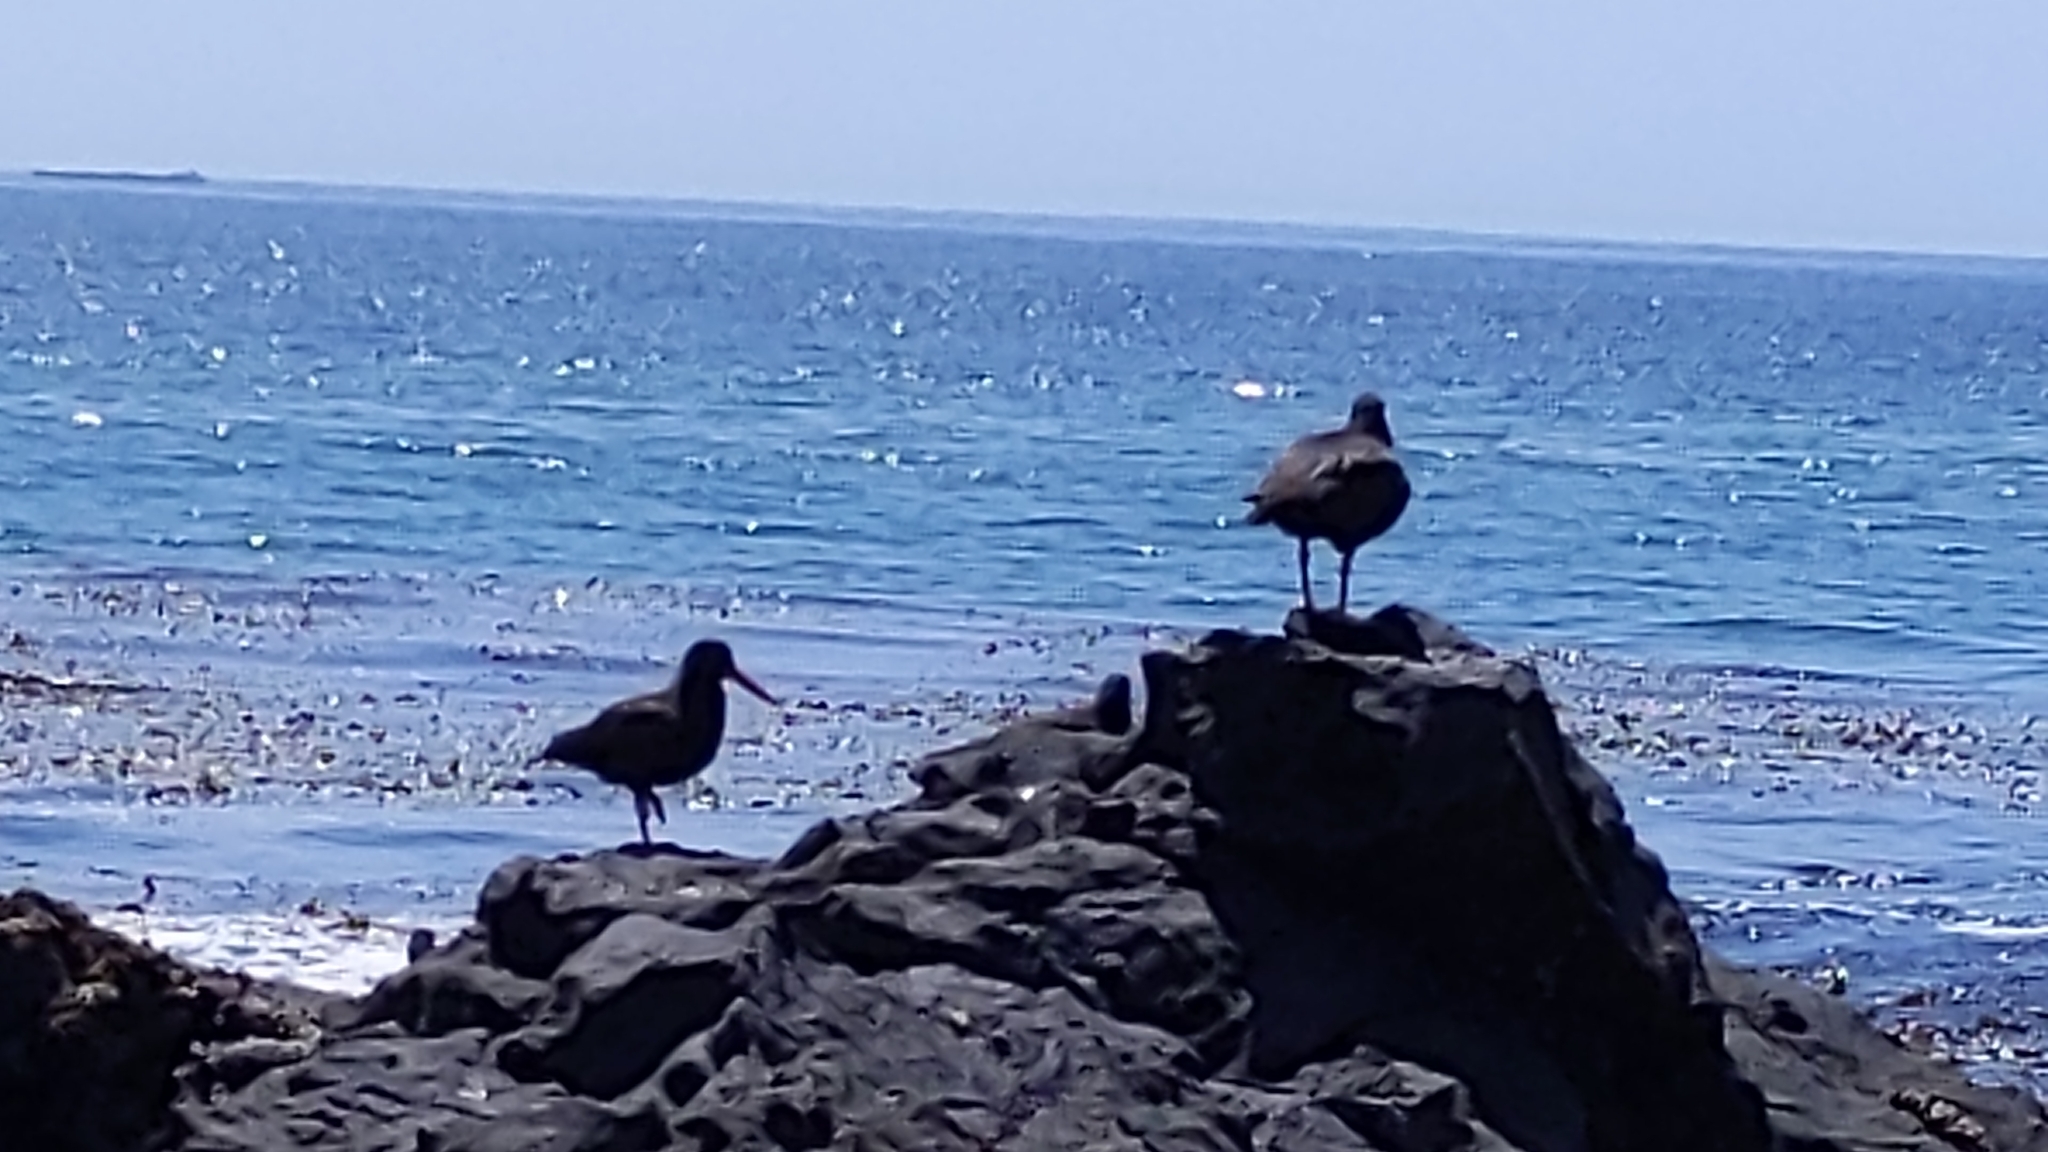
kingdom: Animalia
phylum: Chordata
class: Aves
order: Charadriiformes
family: Haematopodidae
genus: Haematopus
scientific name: Haematopus bachmani
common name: Black oystercatcher
